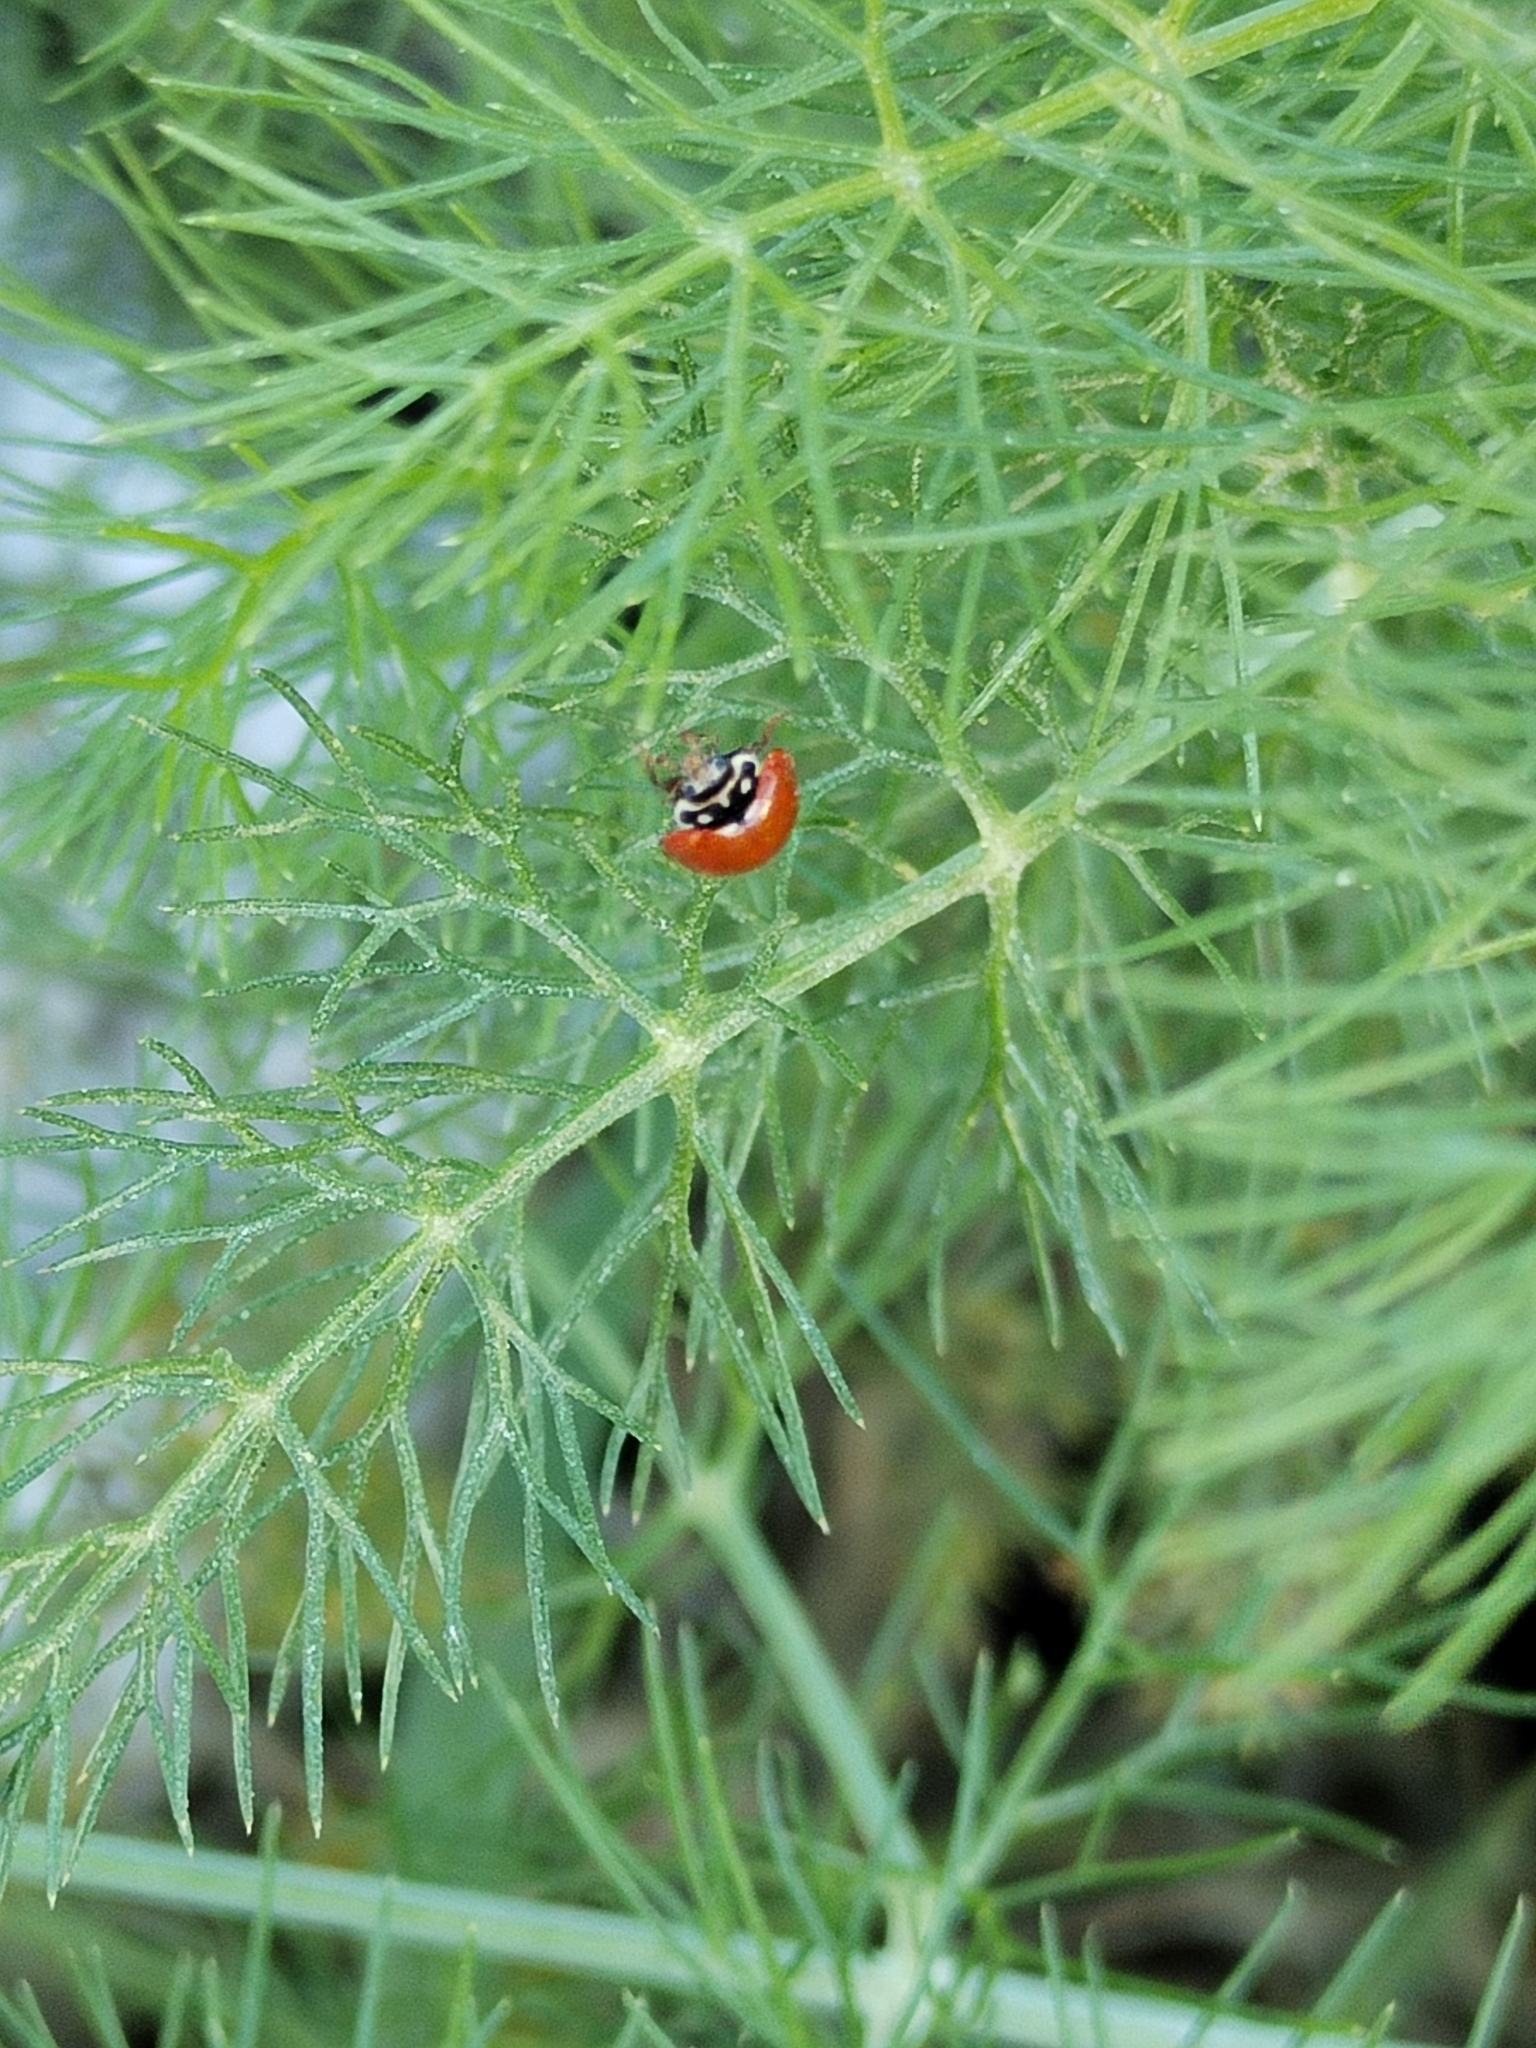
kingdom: Animalia
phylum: Arthropoda
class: Insecta
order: Coleoptera
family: Coccinellidae
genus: Cycloneda
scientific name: Cycloneda sanguinea
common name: Ladybird beetle
